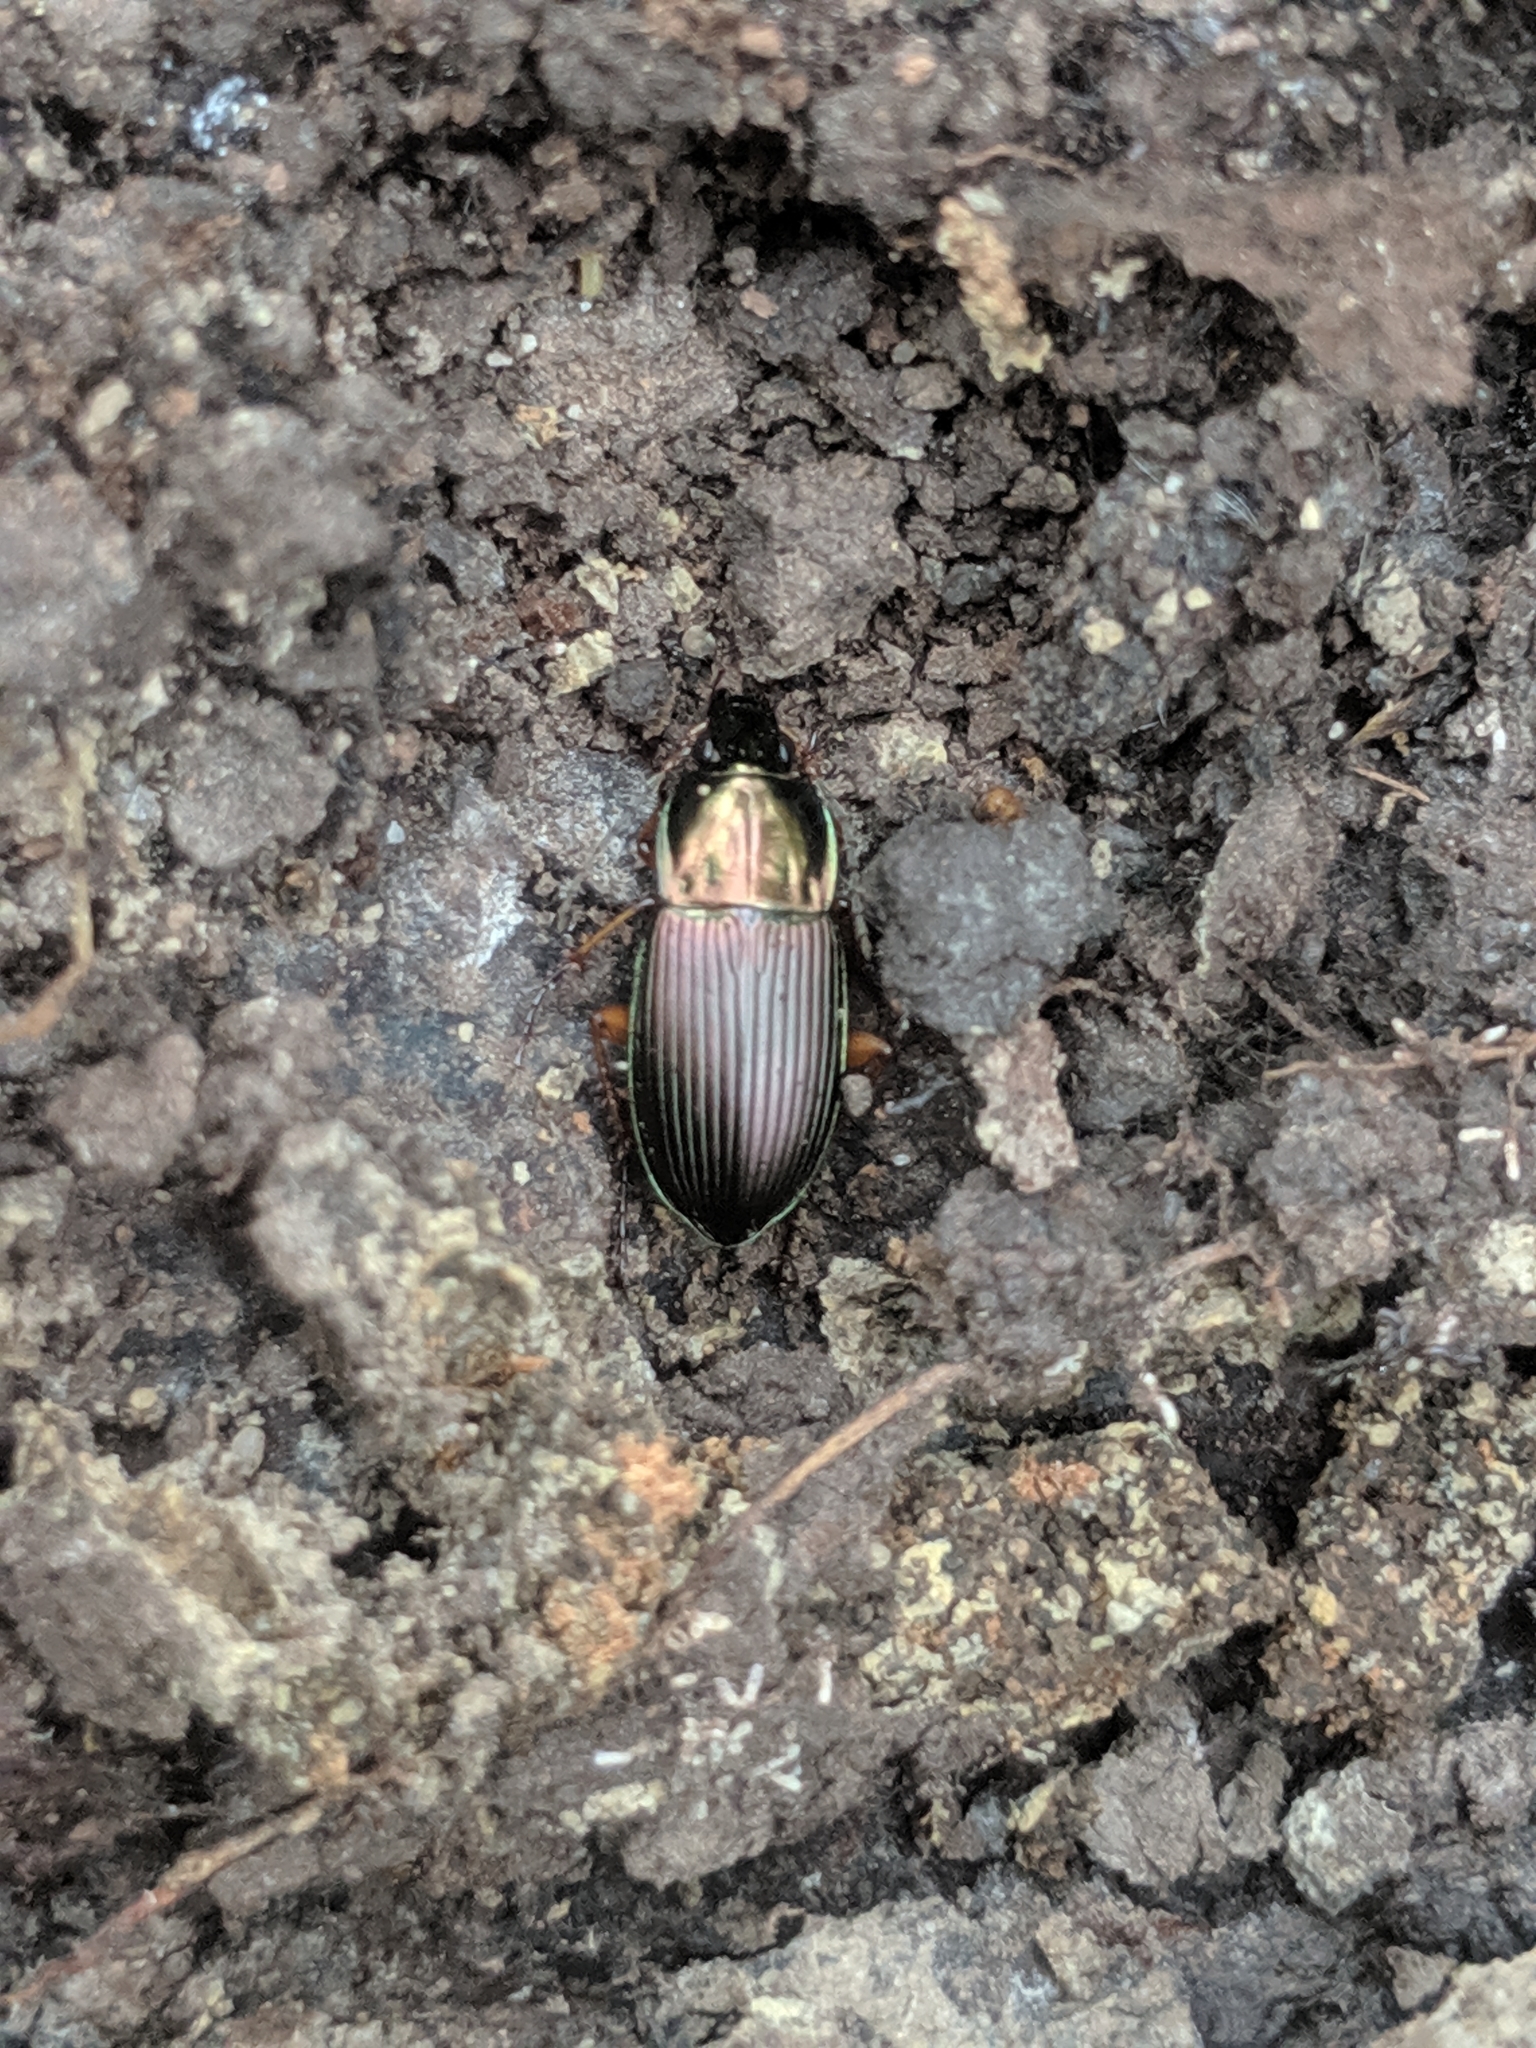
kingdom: Animalia
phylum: Arthropoda
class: Insecta
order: Coleoptera
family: Carabidae
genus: Poecilus
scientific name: Poecilus lucublandus
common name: Woodland ground beetle
